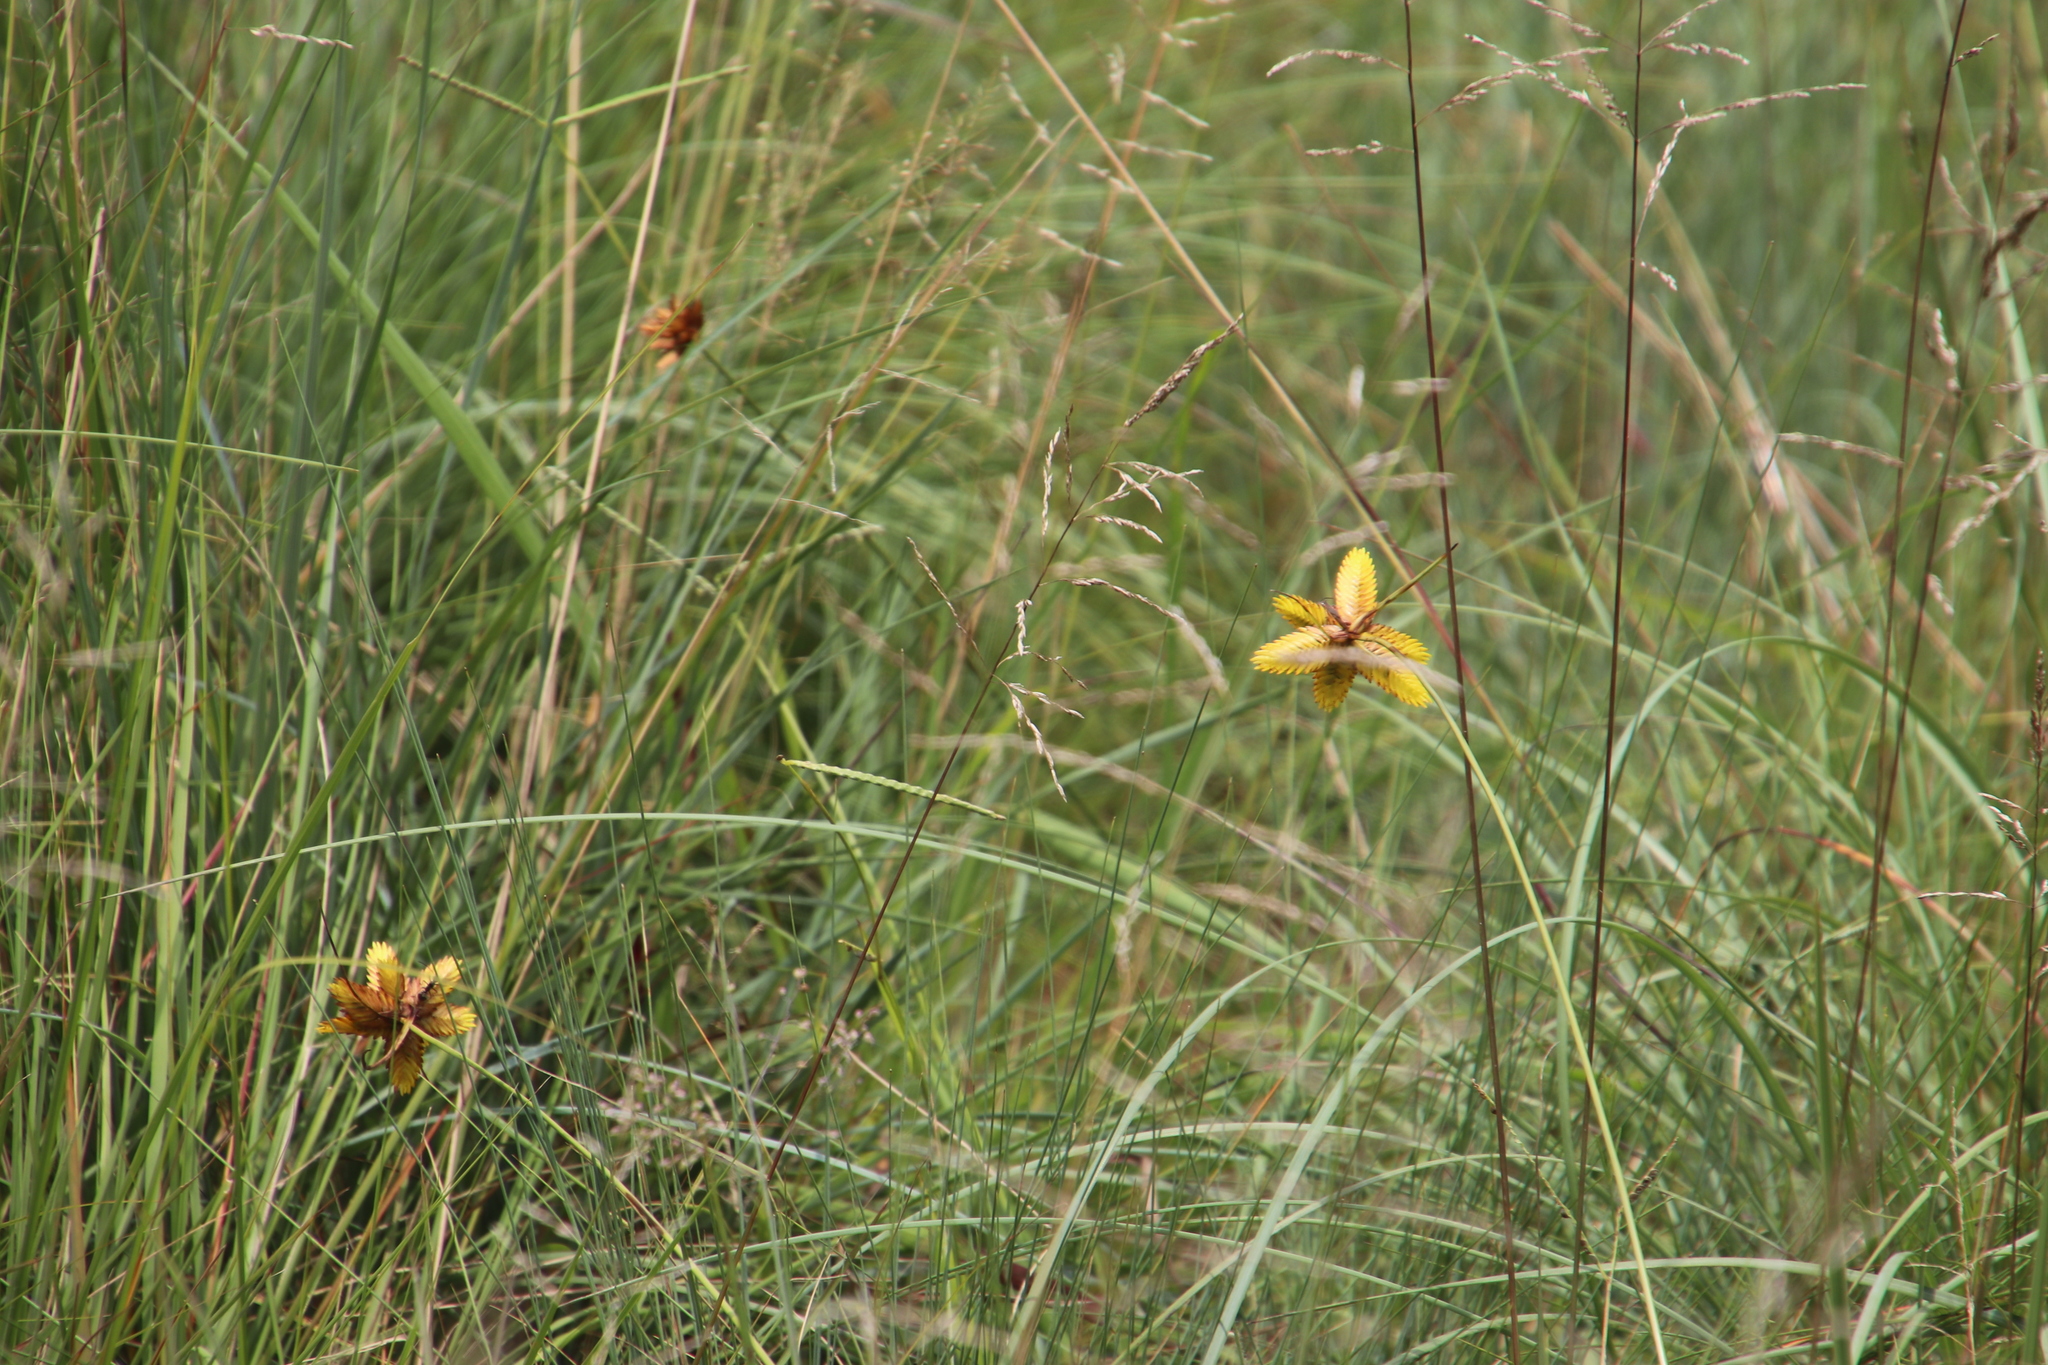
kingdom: Plantae
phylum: Tracheophyta
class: Liliopsida
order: Poales
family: Cyperaceae
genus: Cyperus
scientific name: Cyperus sphaerocephalus
